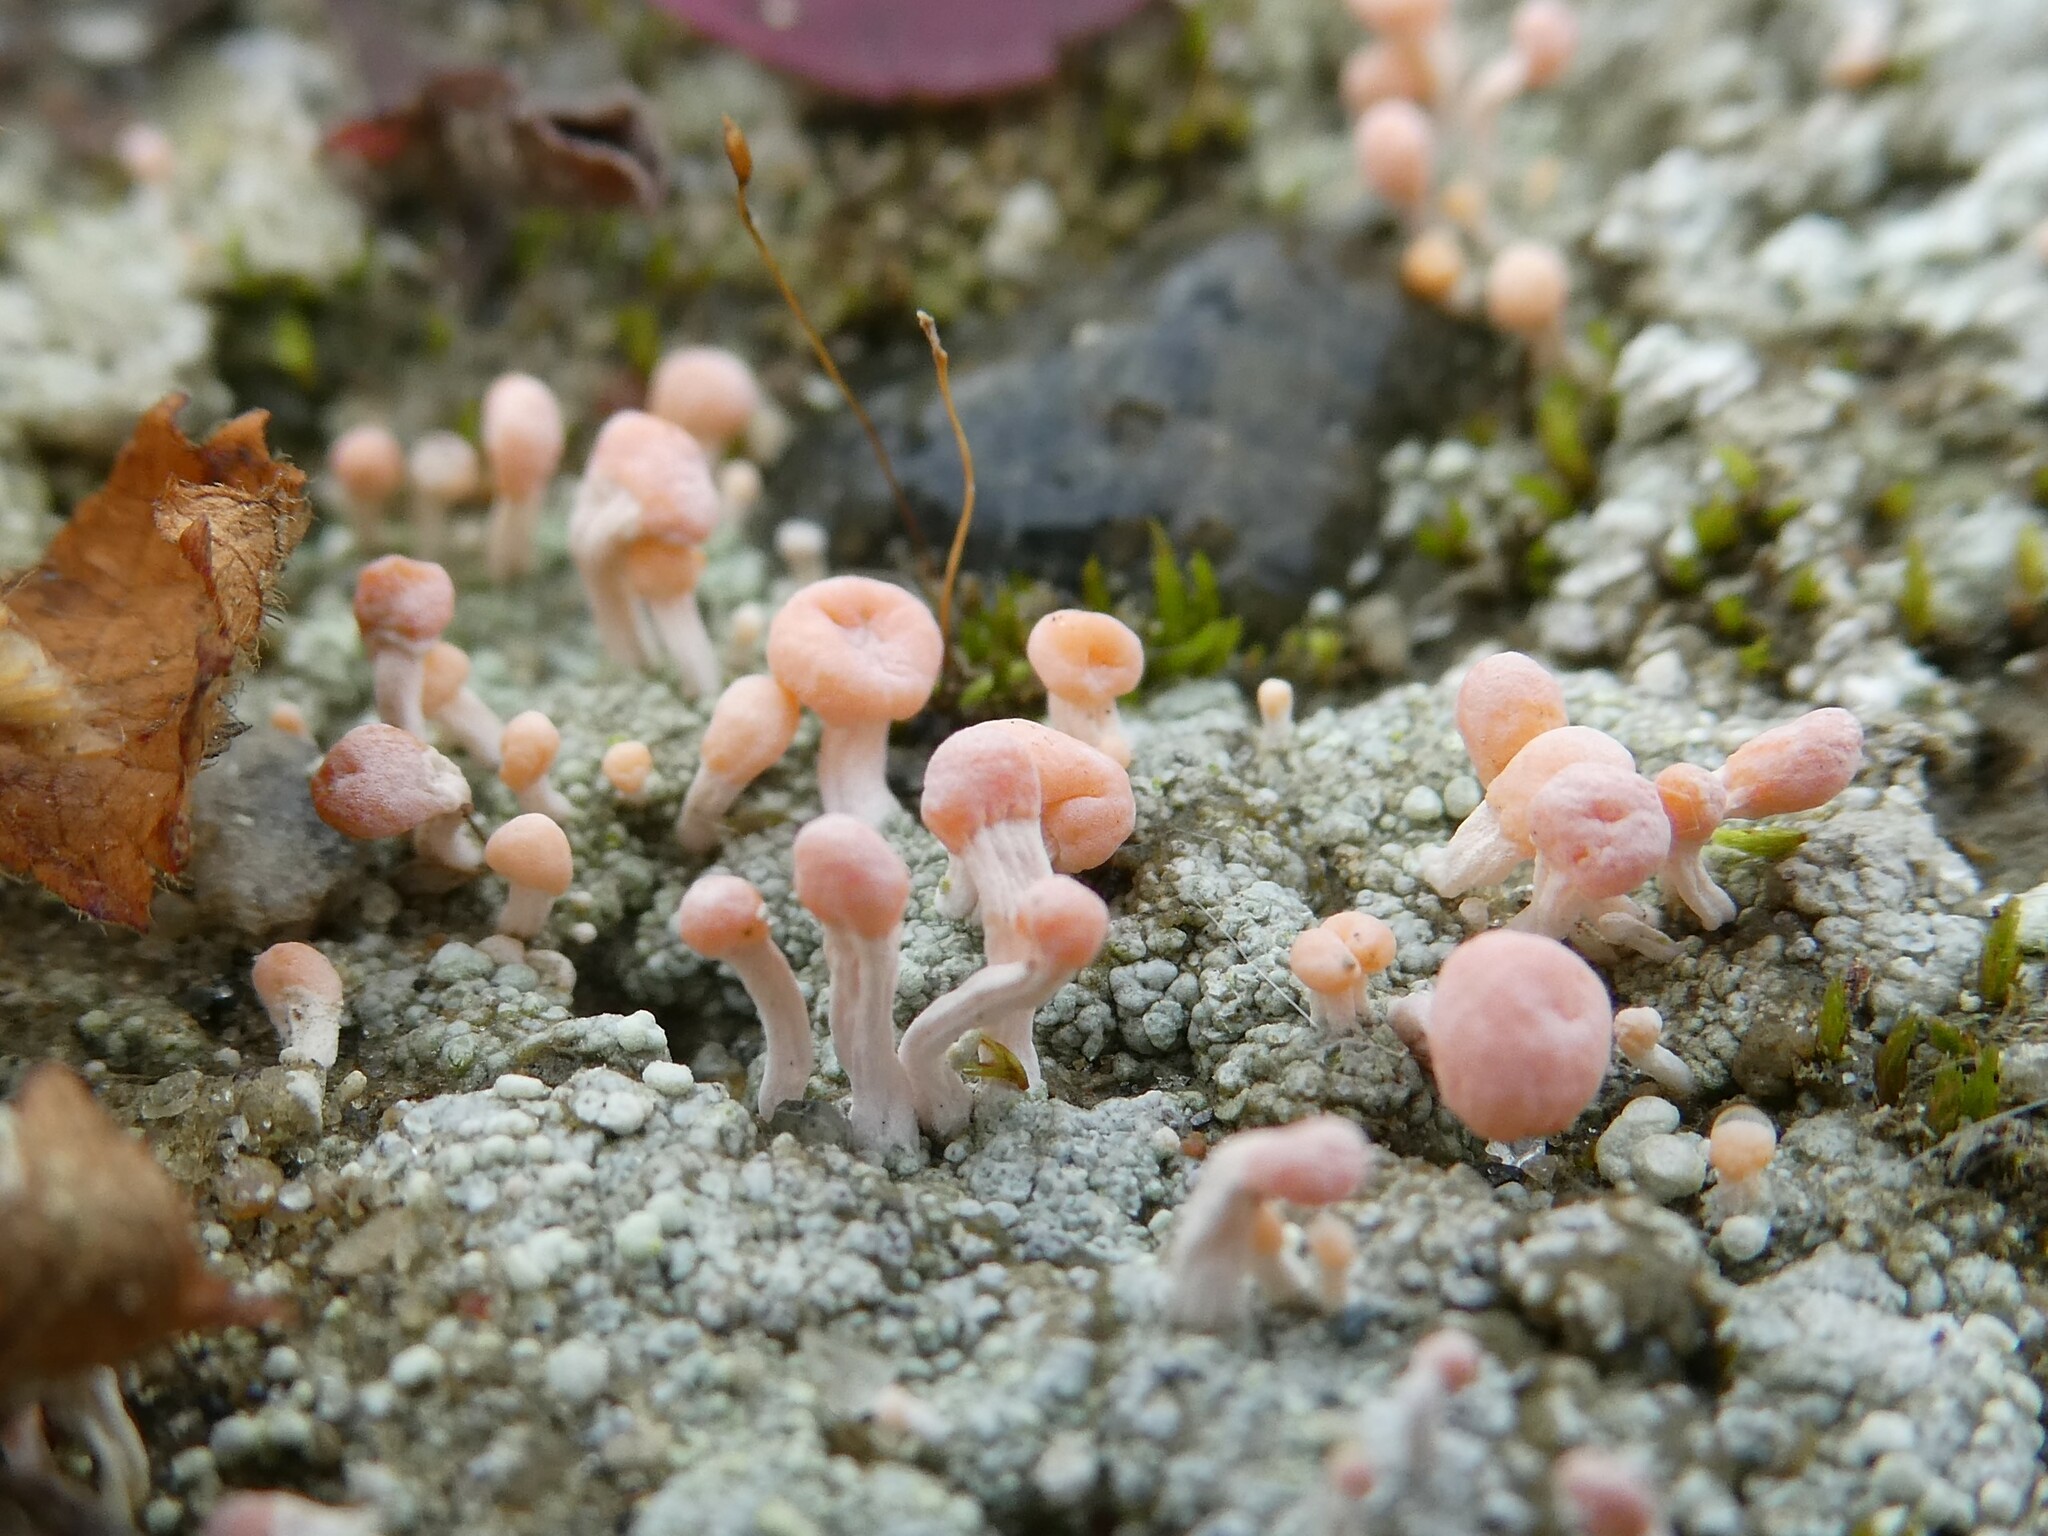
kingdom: Fungi
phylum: Ascomycota
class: Lecanoromycetes
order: Pertusariales
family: Icmadophilaceae
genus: Dibaeis
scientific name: Dibaeis baeomyces
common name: Pink earth lichen
